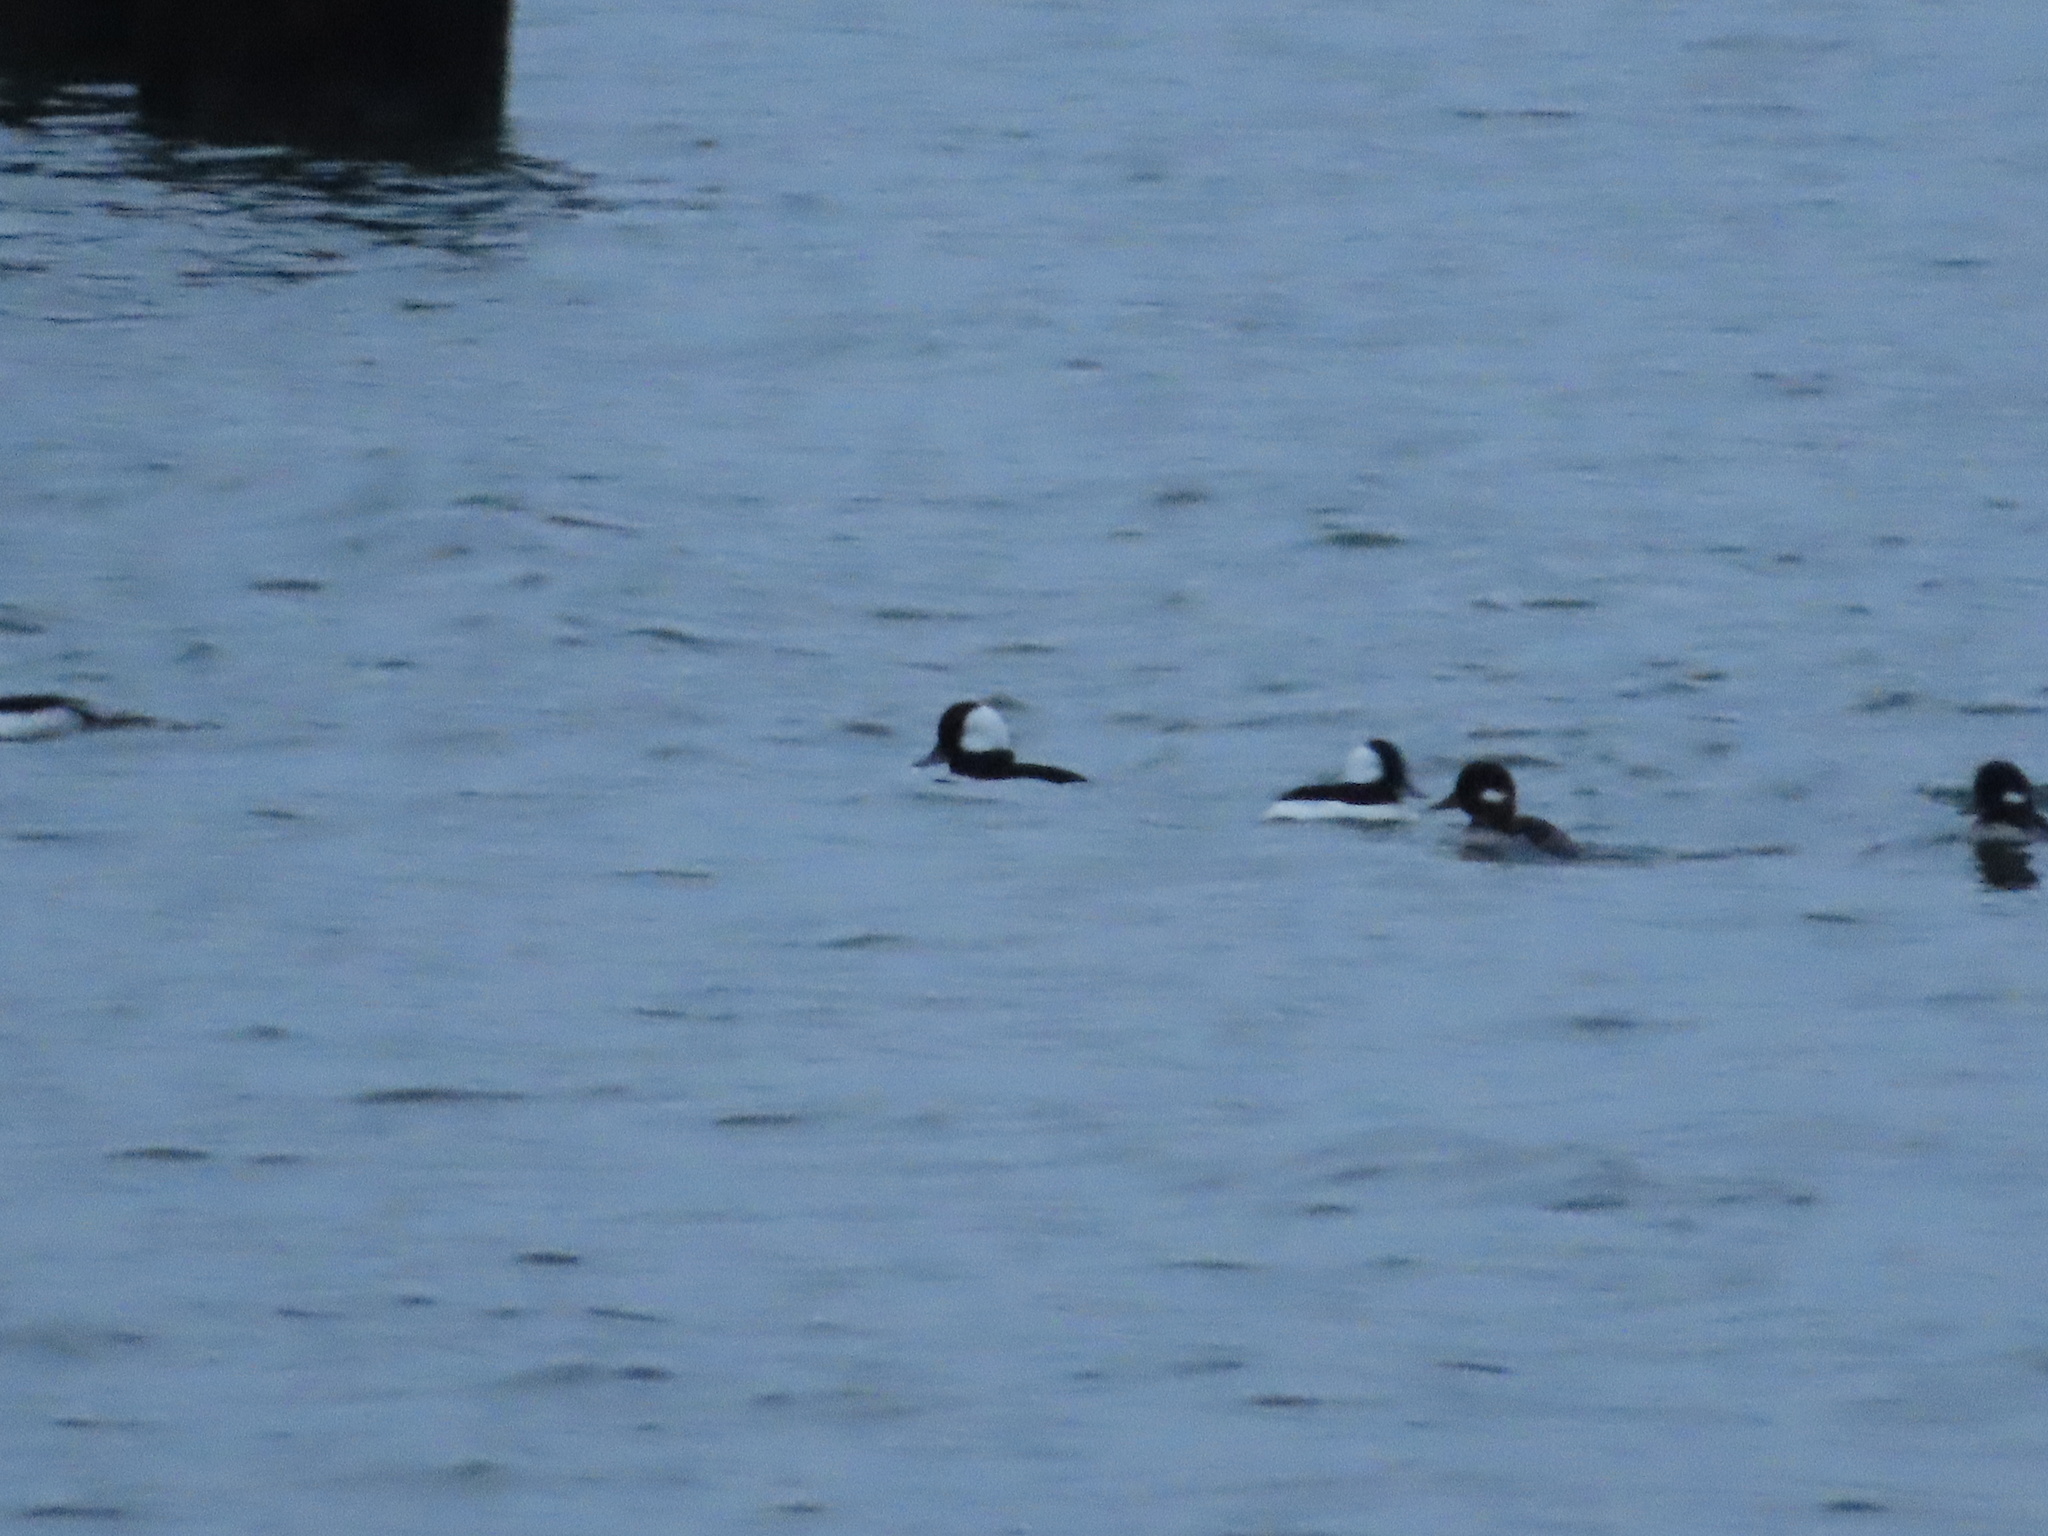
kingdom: Animalia
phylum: Chordata
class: Aves
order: Anseriformes
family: Anatidae
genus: Bucephala
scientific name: Bucephala albeola
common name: Bufflehead
